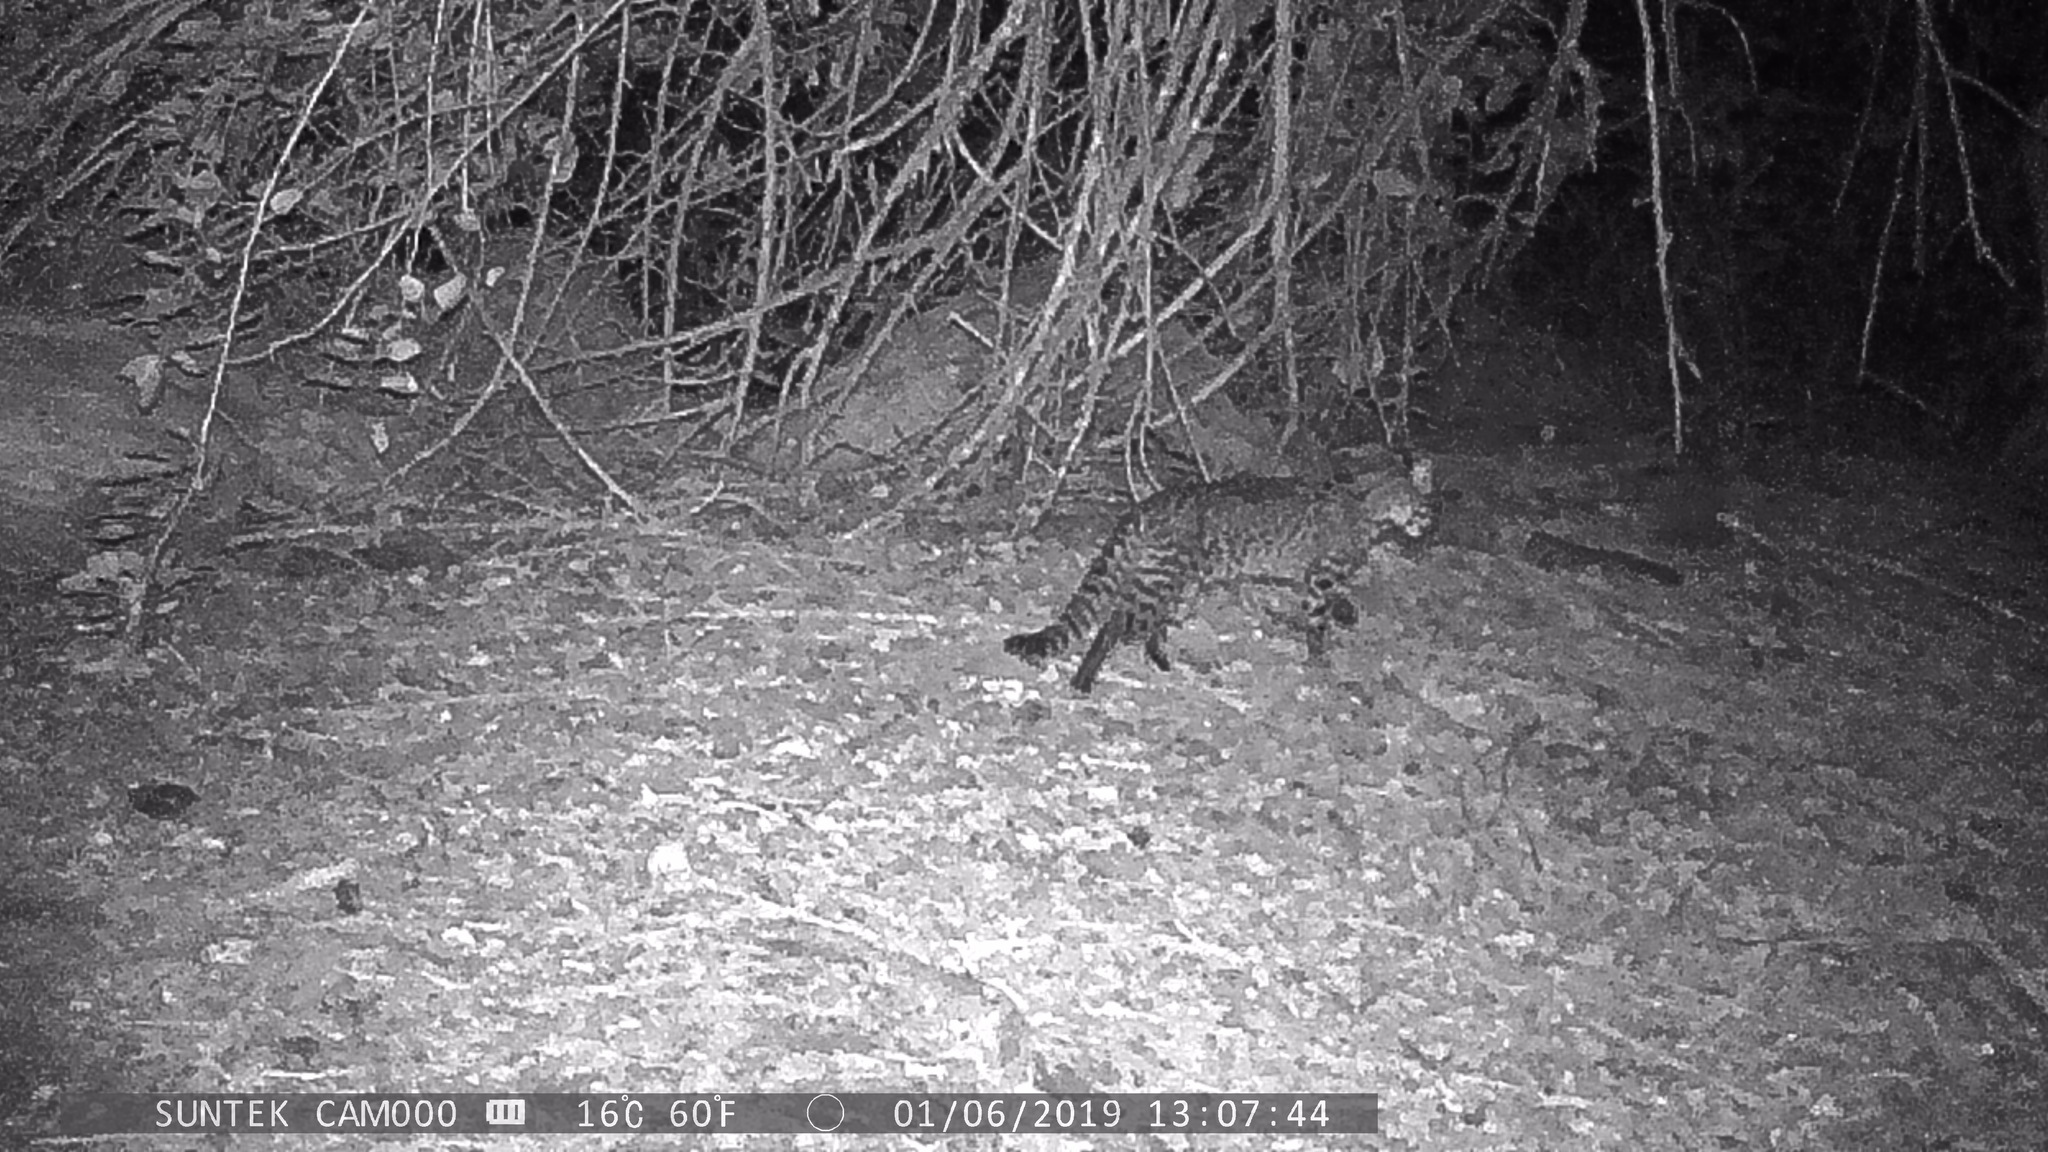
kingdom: Animalia
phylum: Chordata
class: Mammalia
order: Carnivora
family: Felidae
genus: Leopardus
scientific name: Leopardus geoffroyi
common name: Geoffroy's cat
